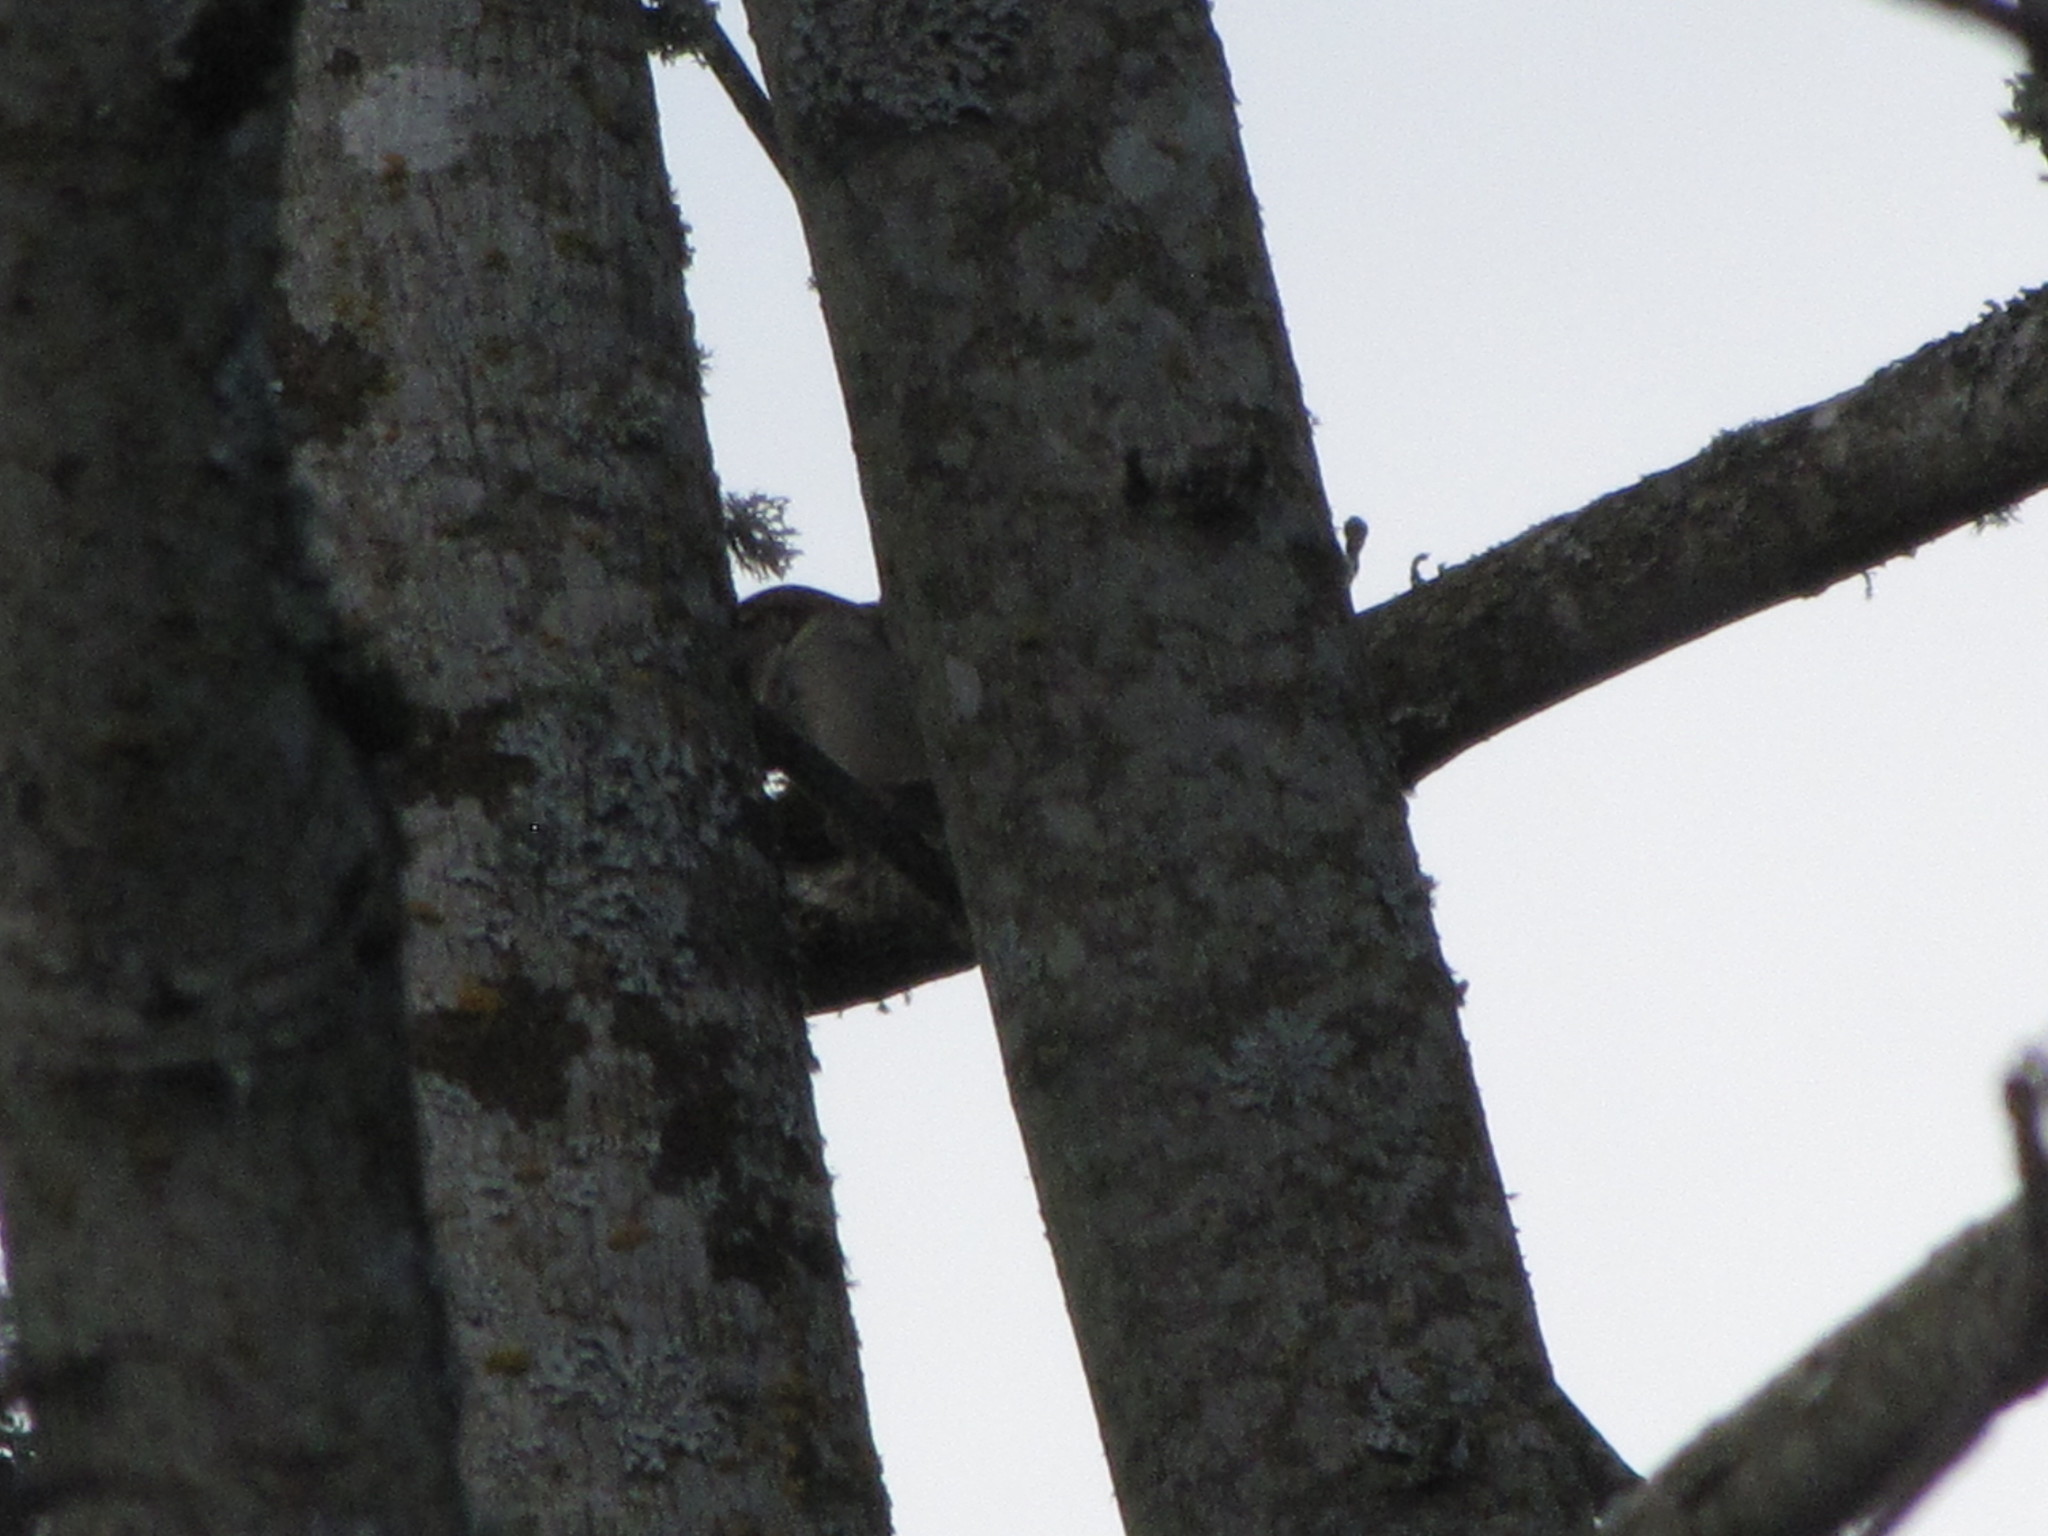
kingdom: Animalia
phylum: Chordata
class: Aves
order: Passeriformes
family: Passeridae
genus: Passer
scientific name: Passer domesticus
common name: House sparrow
